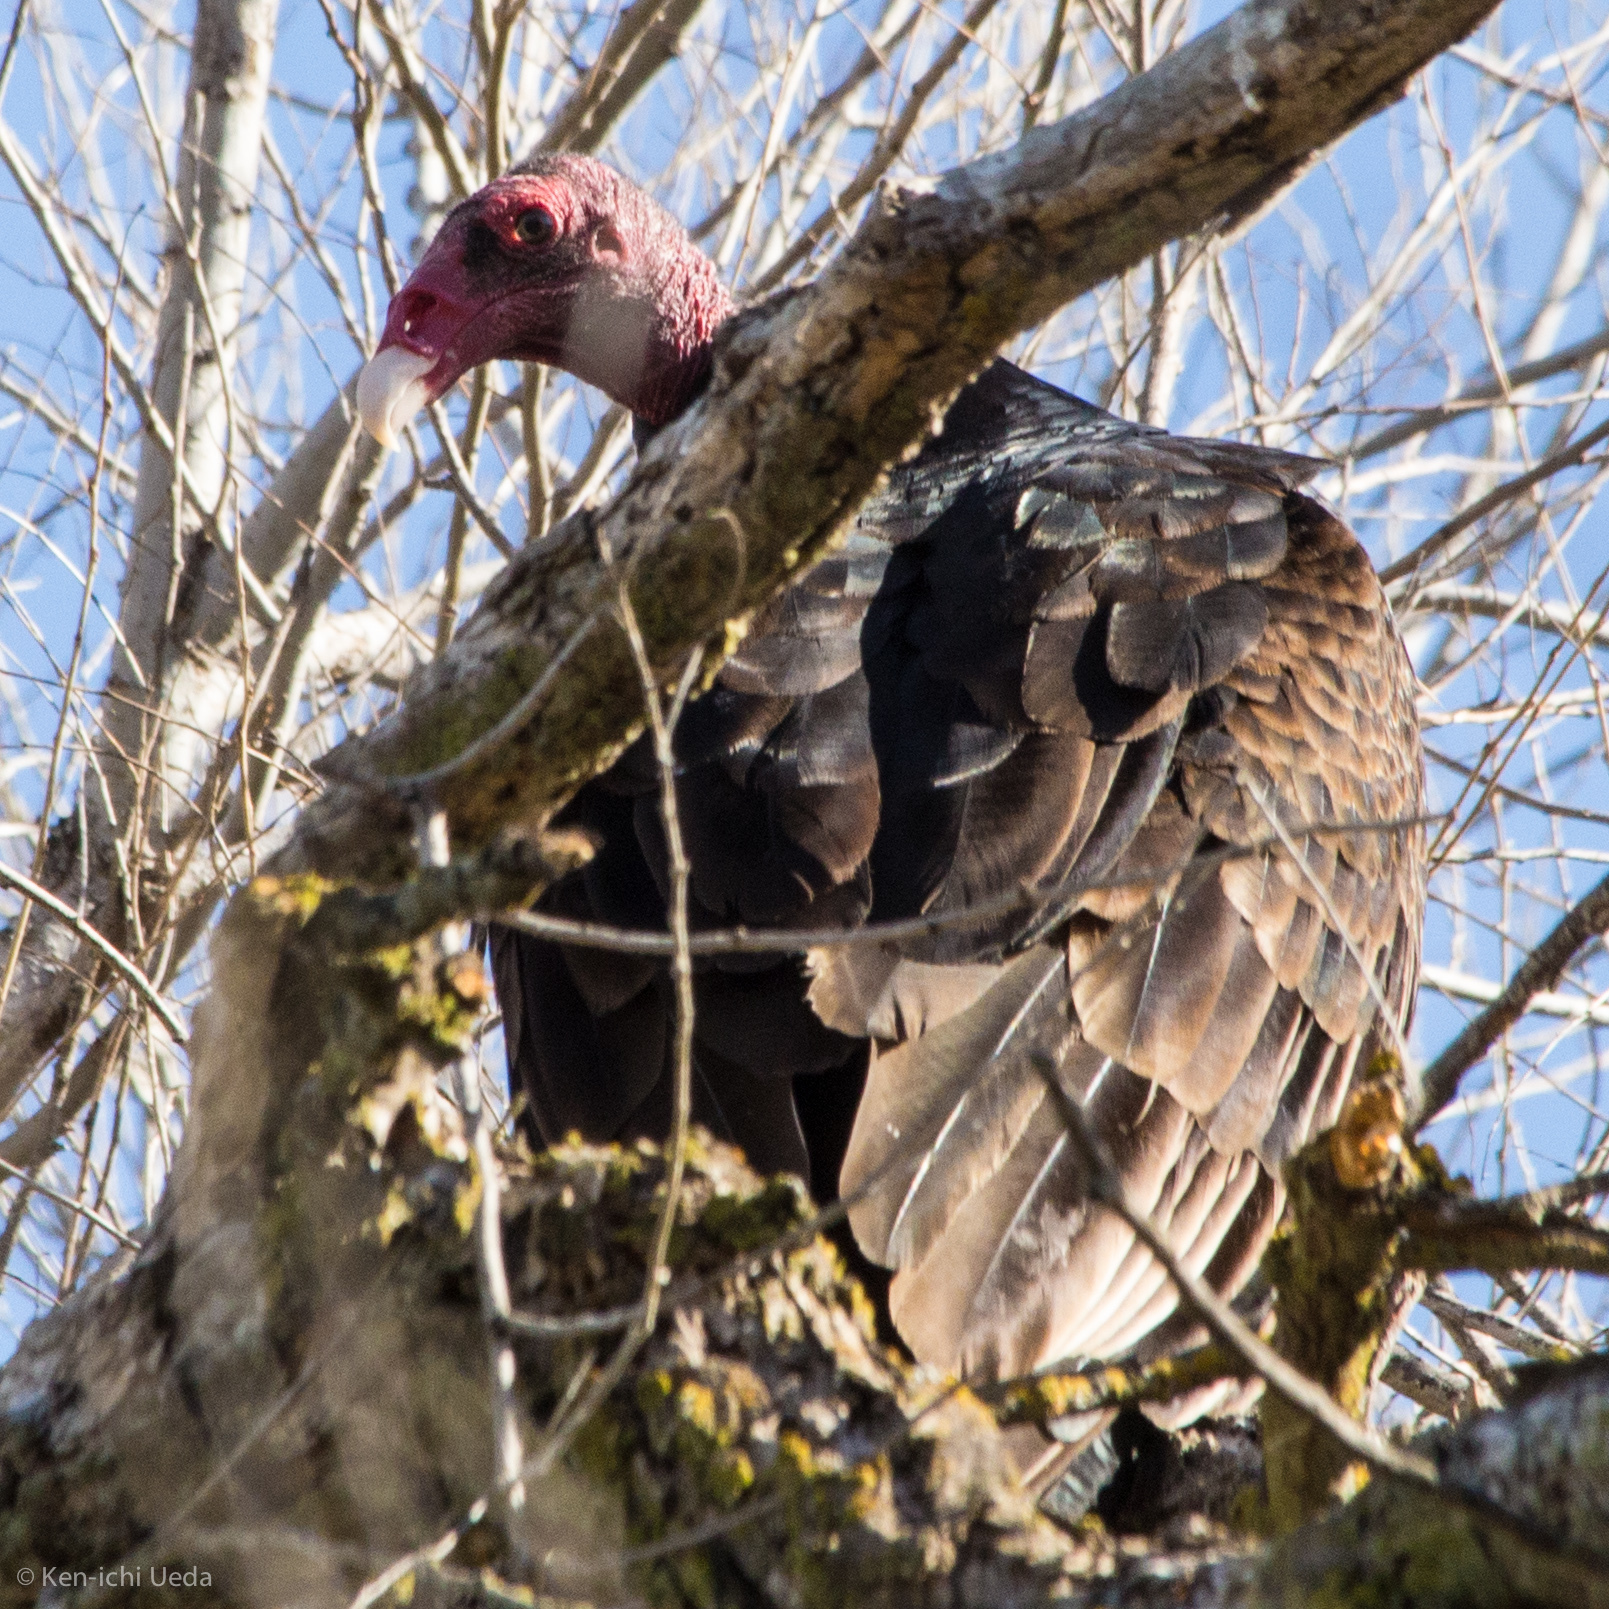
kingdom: Animalia
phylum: Chordata
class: Aves
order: Accipitriformes
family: Cathartidae
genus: Cathartes
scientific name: Cathartes aura
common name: Turkey vulture
